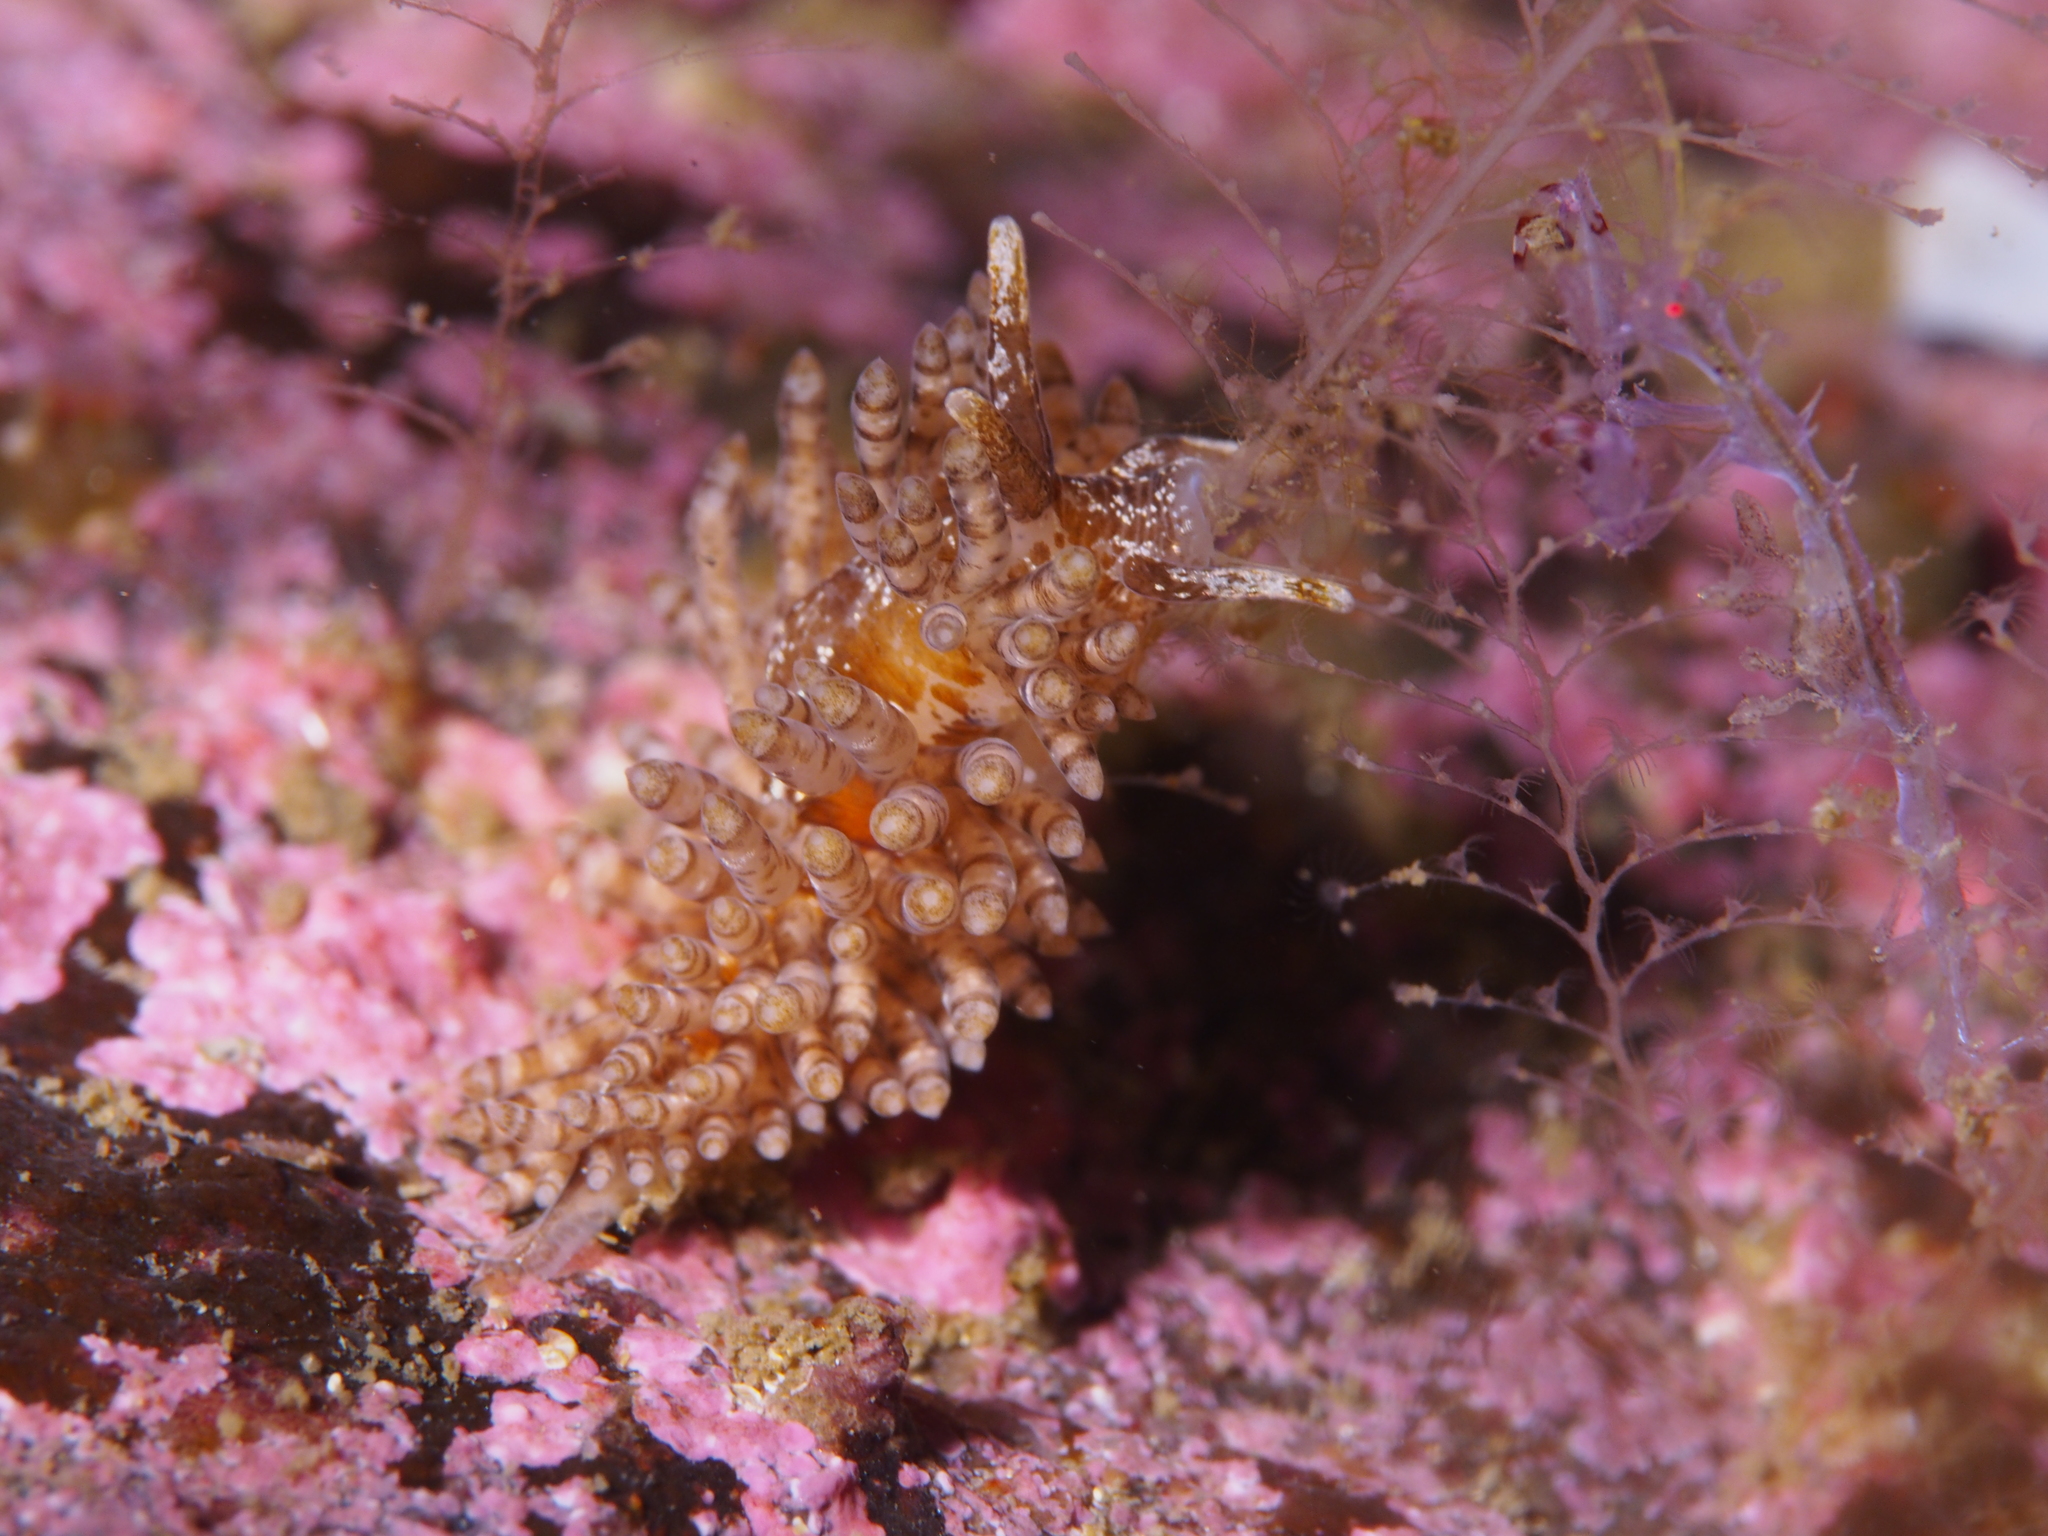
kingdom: Animalia
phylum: Mollusca
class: Gastropoda
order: Nudibranchia
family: Eubranchidae
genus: Eubranchus
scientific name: Eubranchus vittatus
